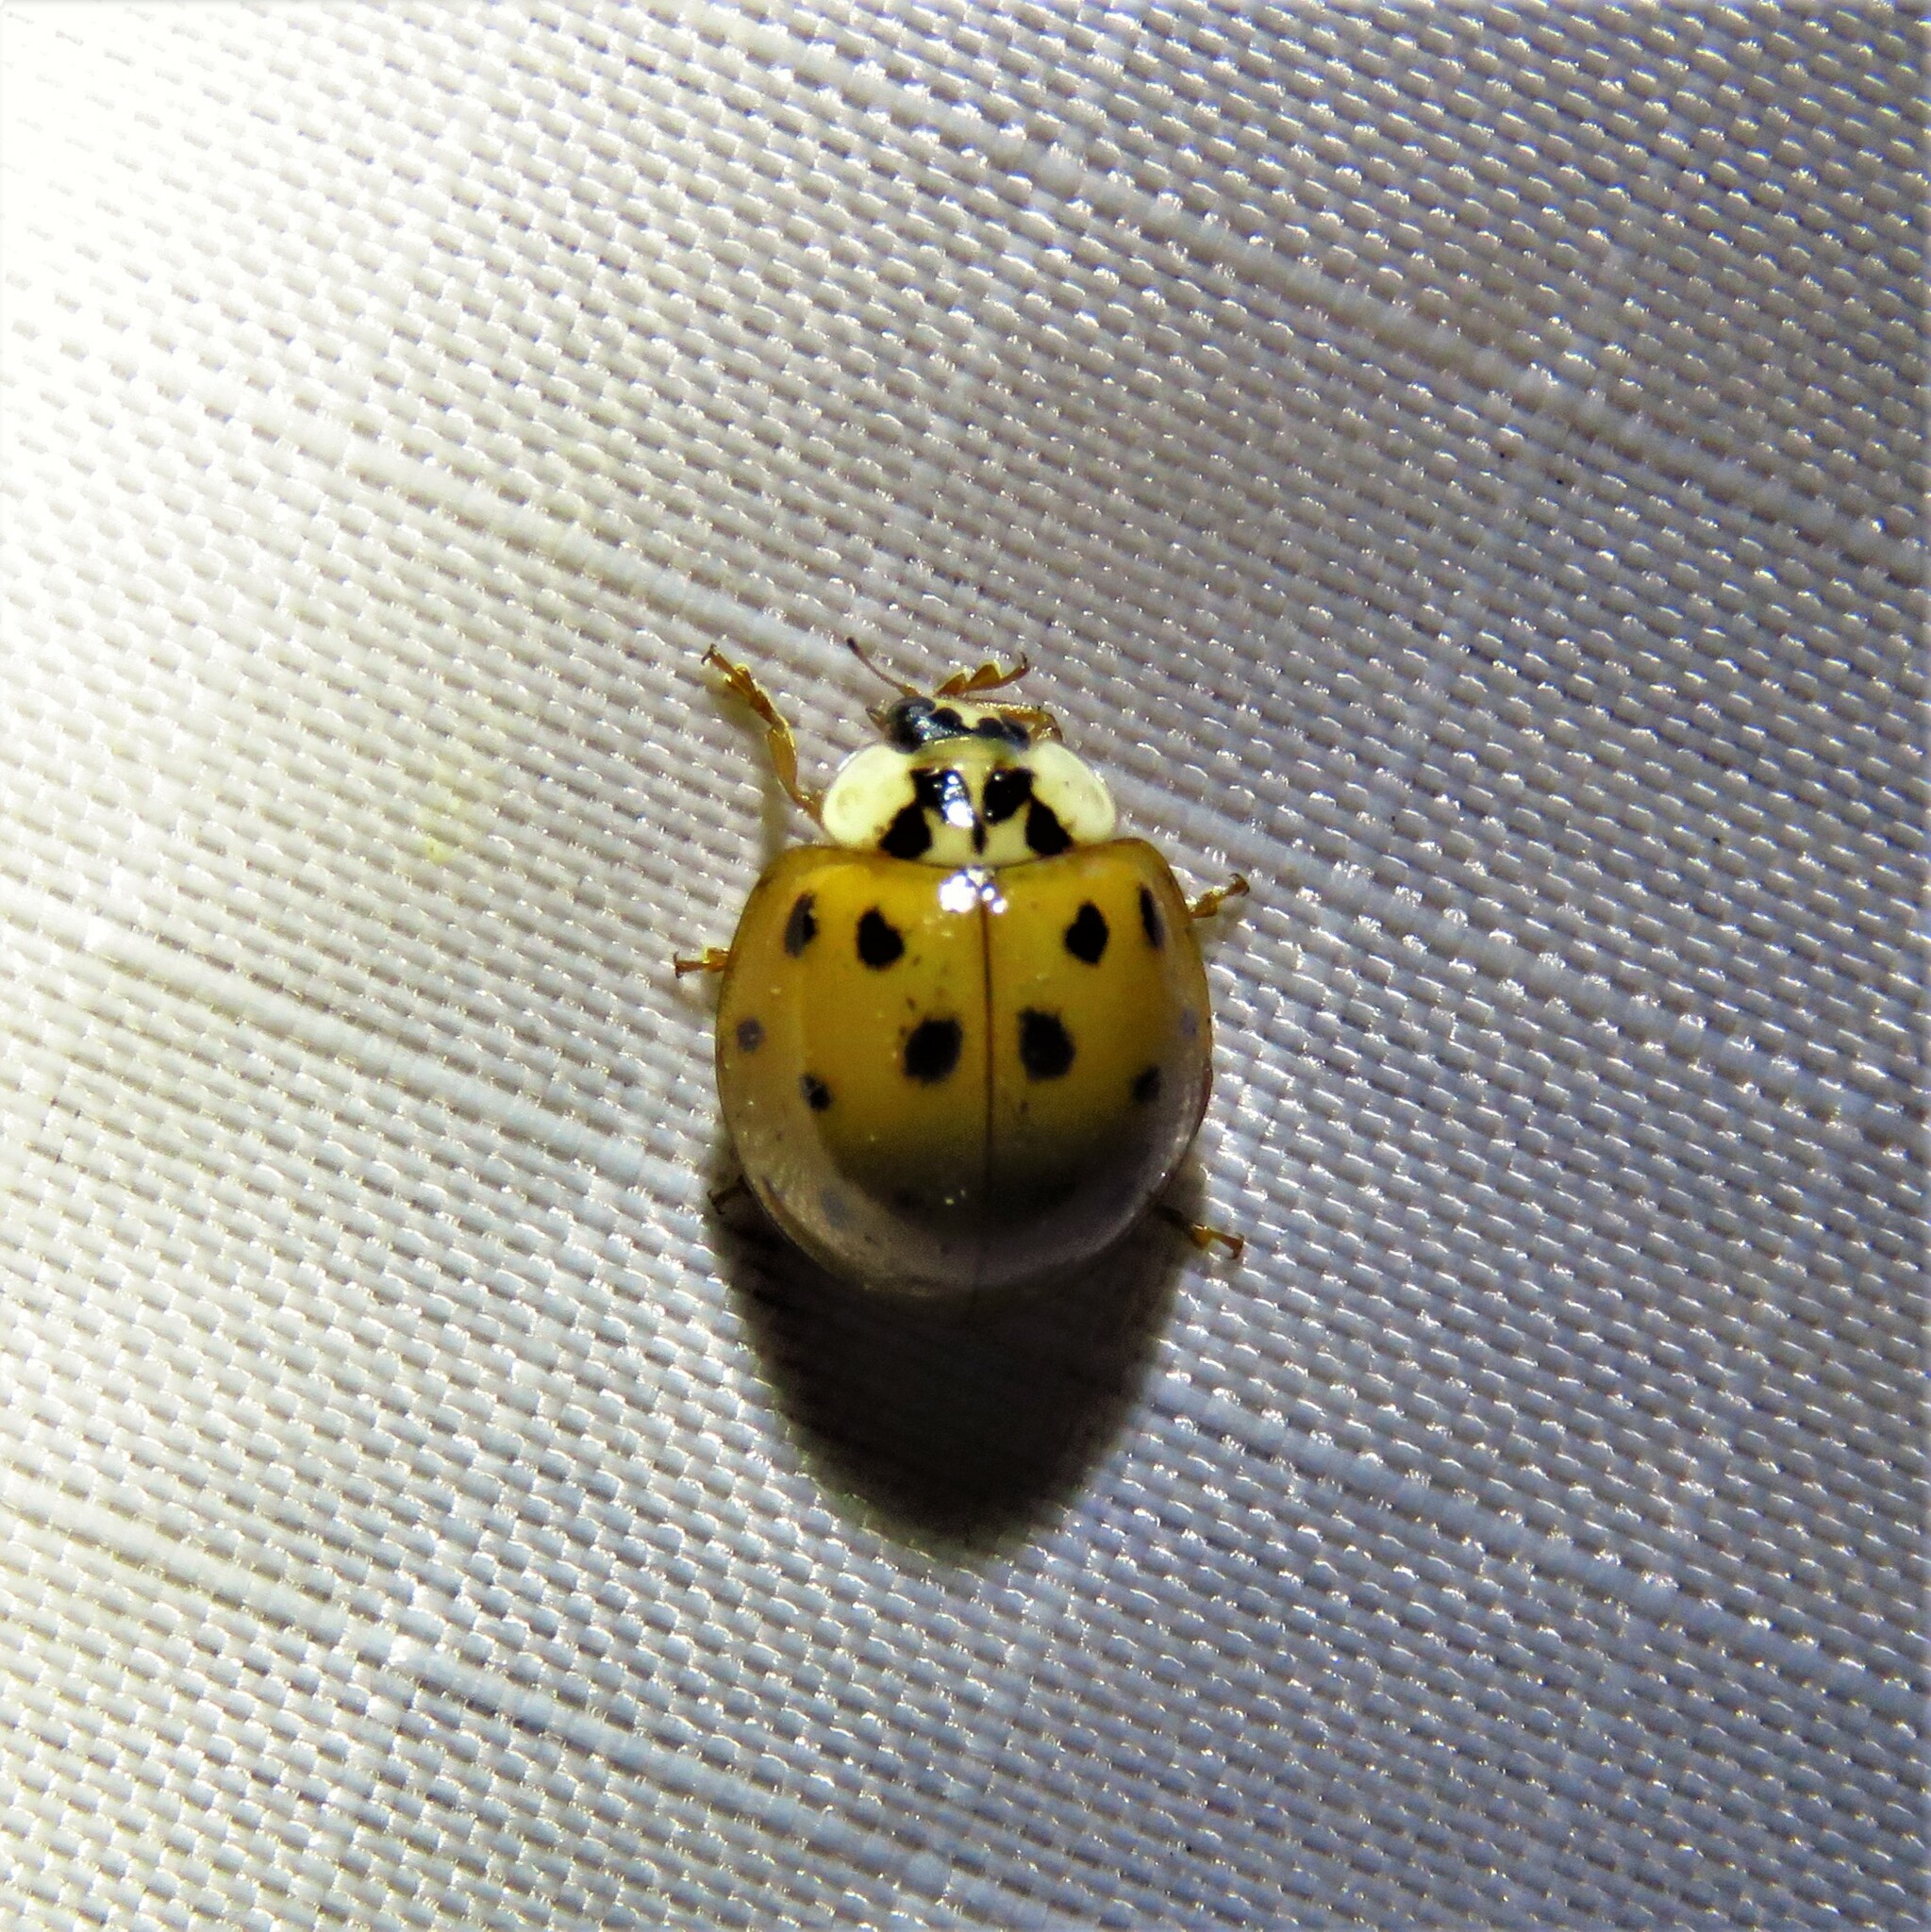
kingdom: Animalia
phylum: Arthropoda
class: Insecta
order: Coleoptera
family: Coccinellidae
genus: Harmonia
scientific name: Harmonia axyridis
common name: Harlequin ladybird
